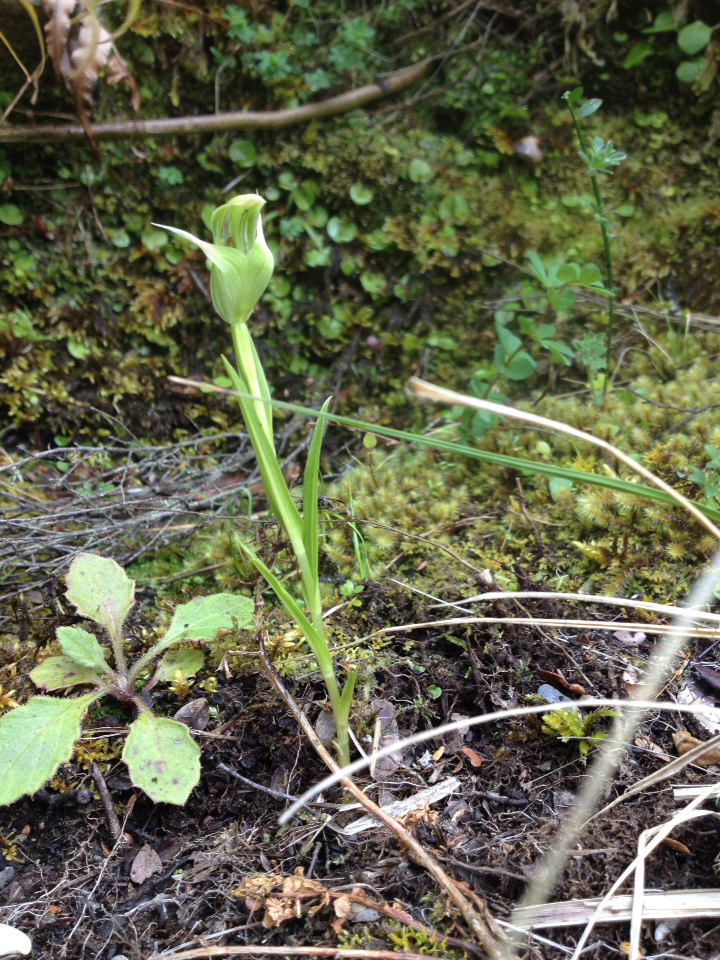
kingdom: Plantae
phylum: Tracheophyta
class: Liliopsida
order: Asparagales
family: Orchidaceae
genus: Pterostylis
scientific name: Pterostylis montana
